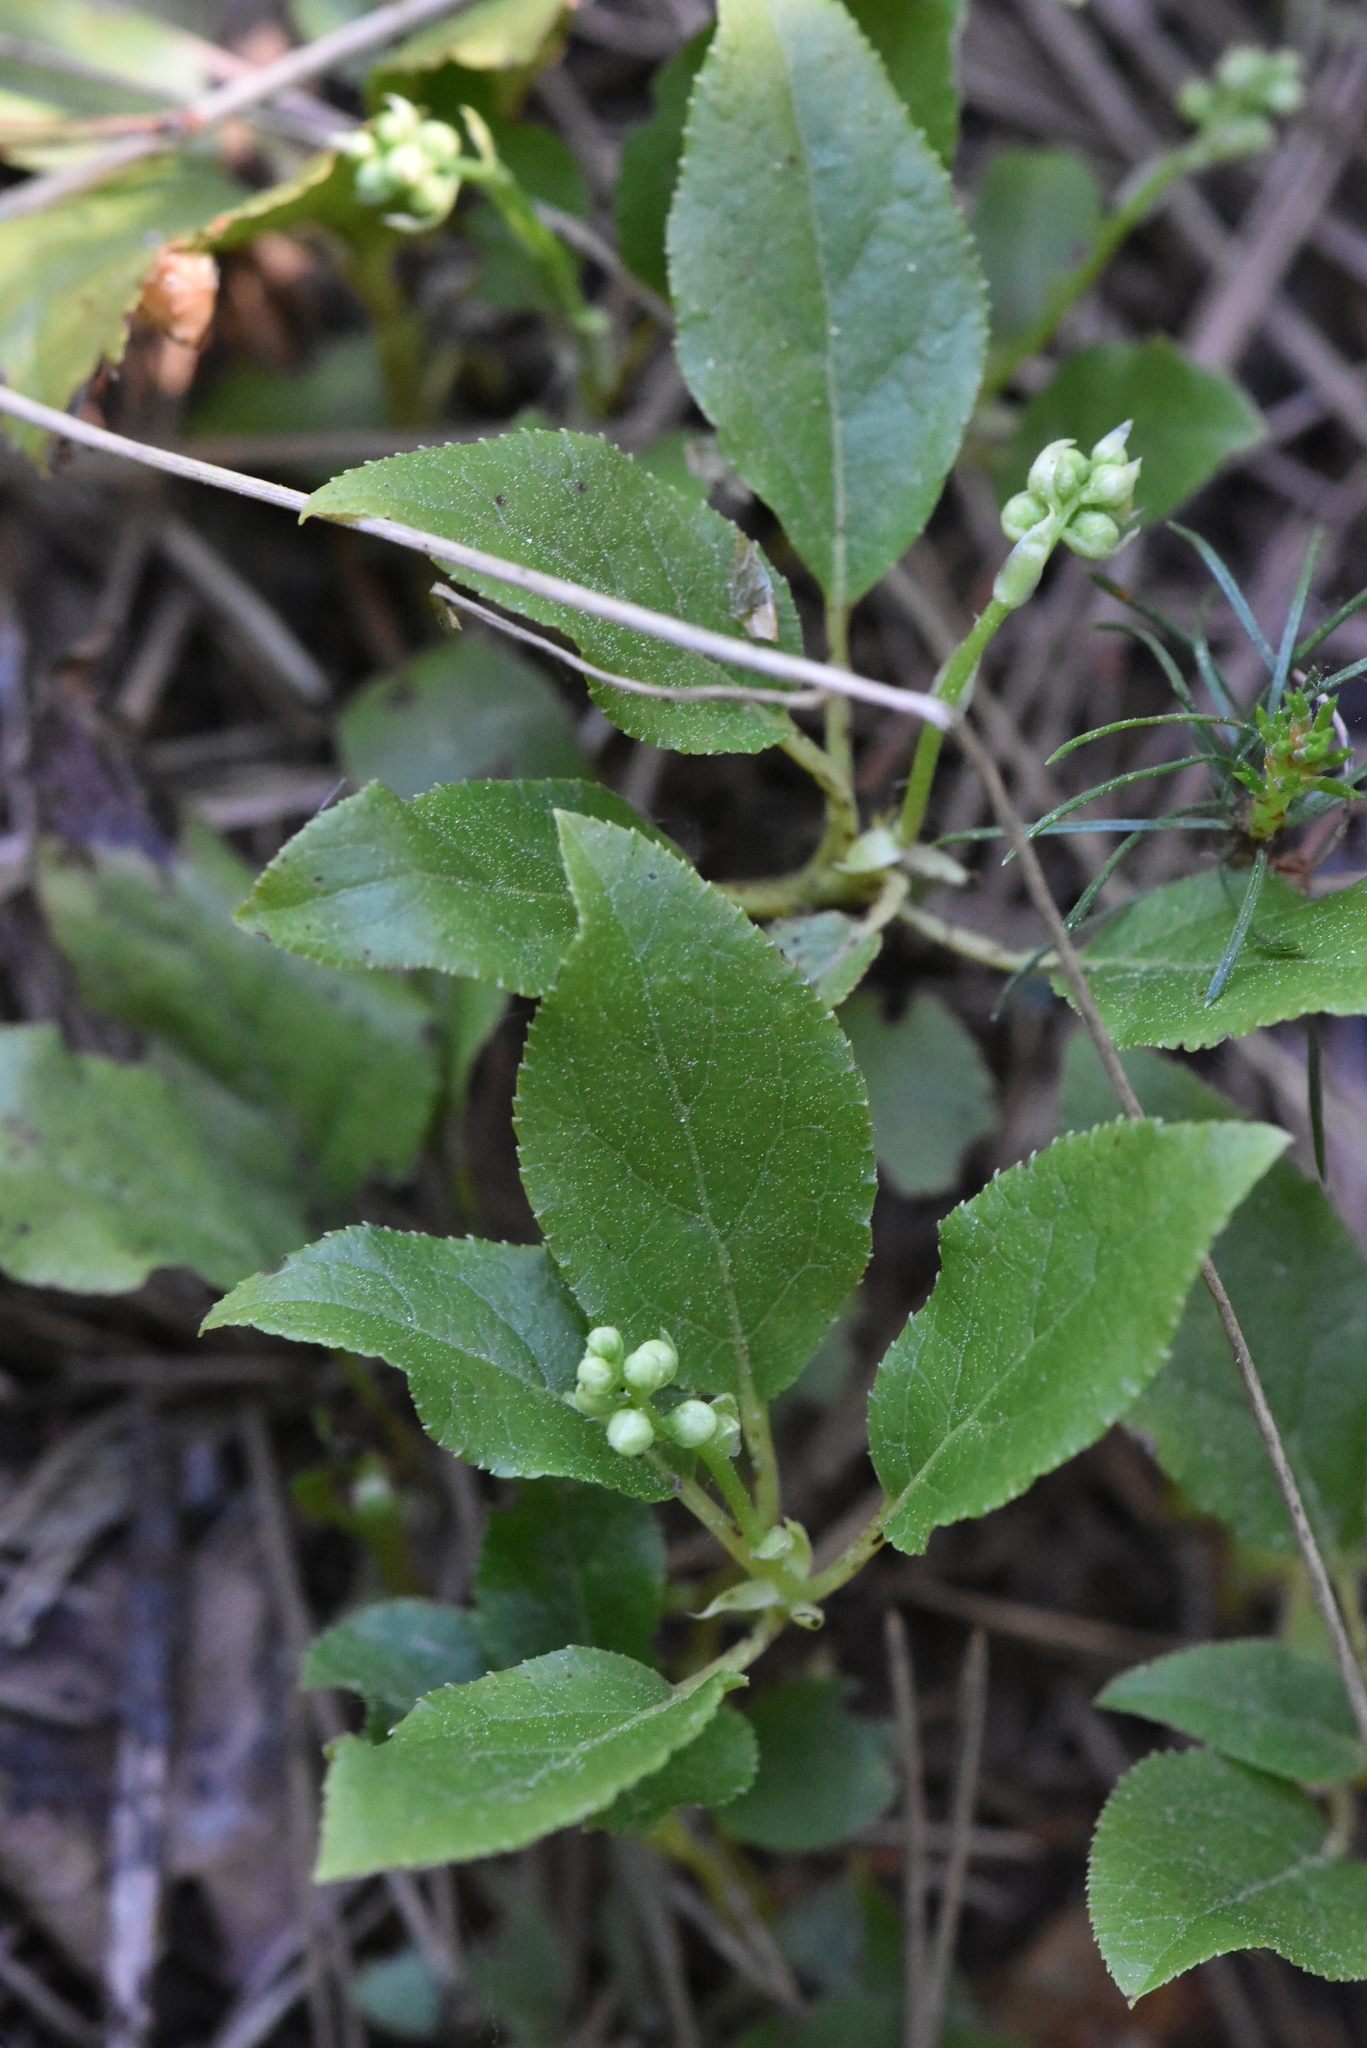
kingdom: Plantae
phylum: Tracheophyta
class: Magnoliopsida
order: Ericales
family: Ericaceae
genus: Orthilia
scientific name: Orthilia secunda
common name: One-sided orthilia
